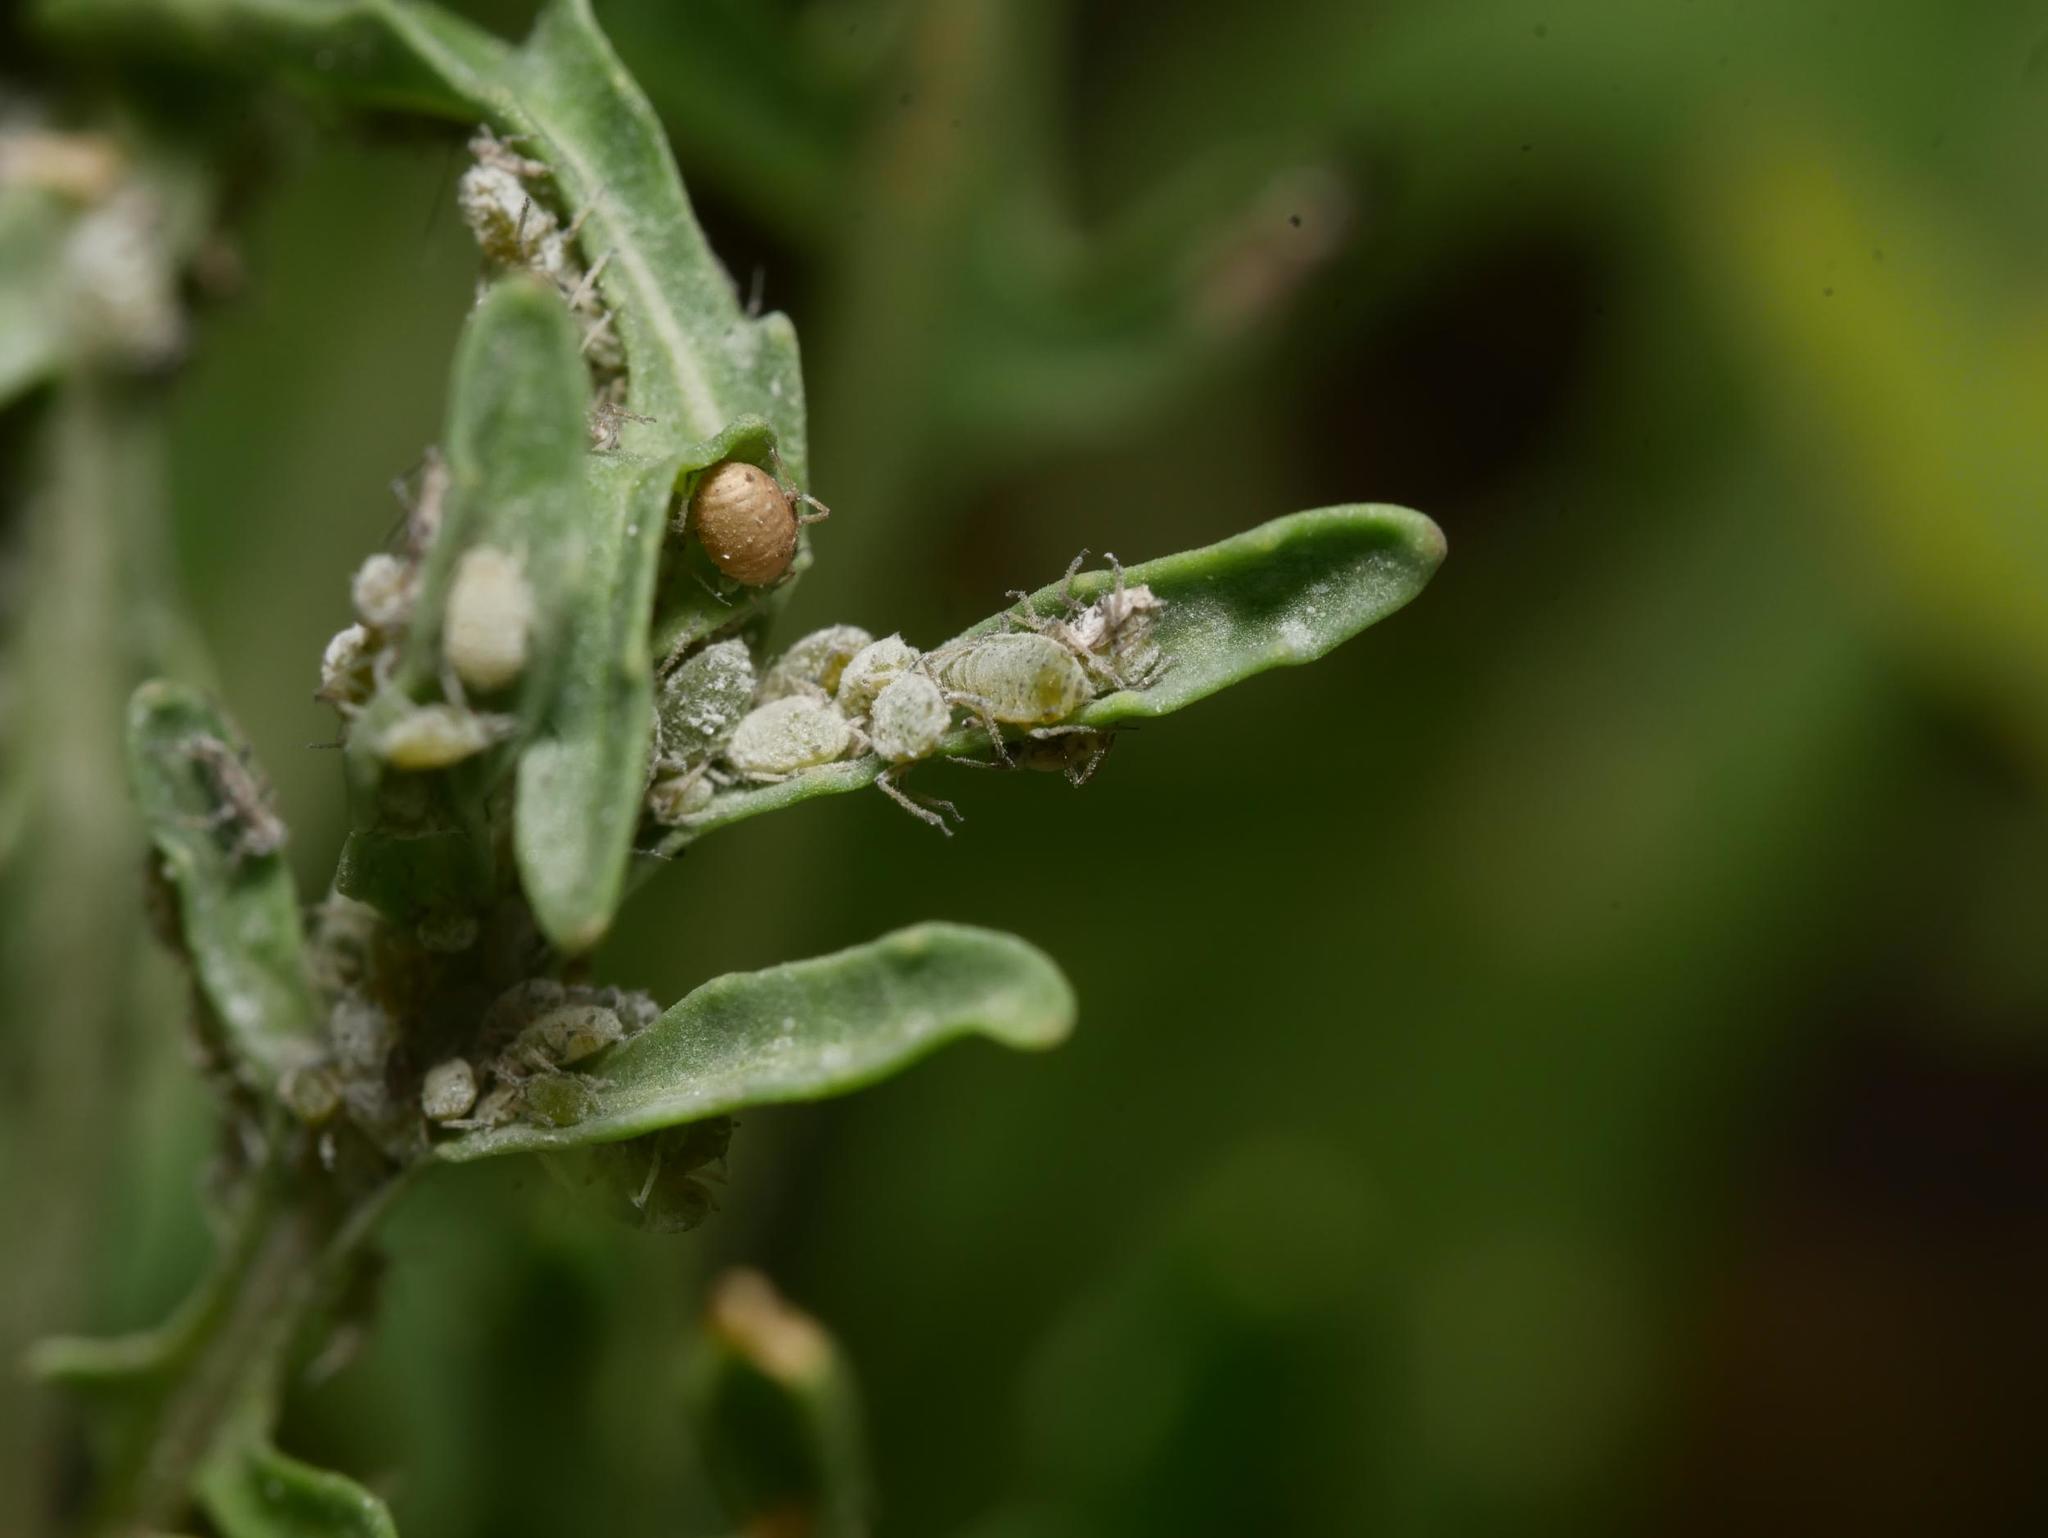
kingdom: Animalia
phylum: Arthropoda
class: Insecta
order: Hemiptera
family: Aphididae
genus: Brevicoryne
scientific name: Brevicoryne brassicae
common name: Cabbage aphid
